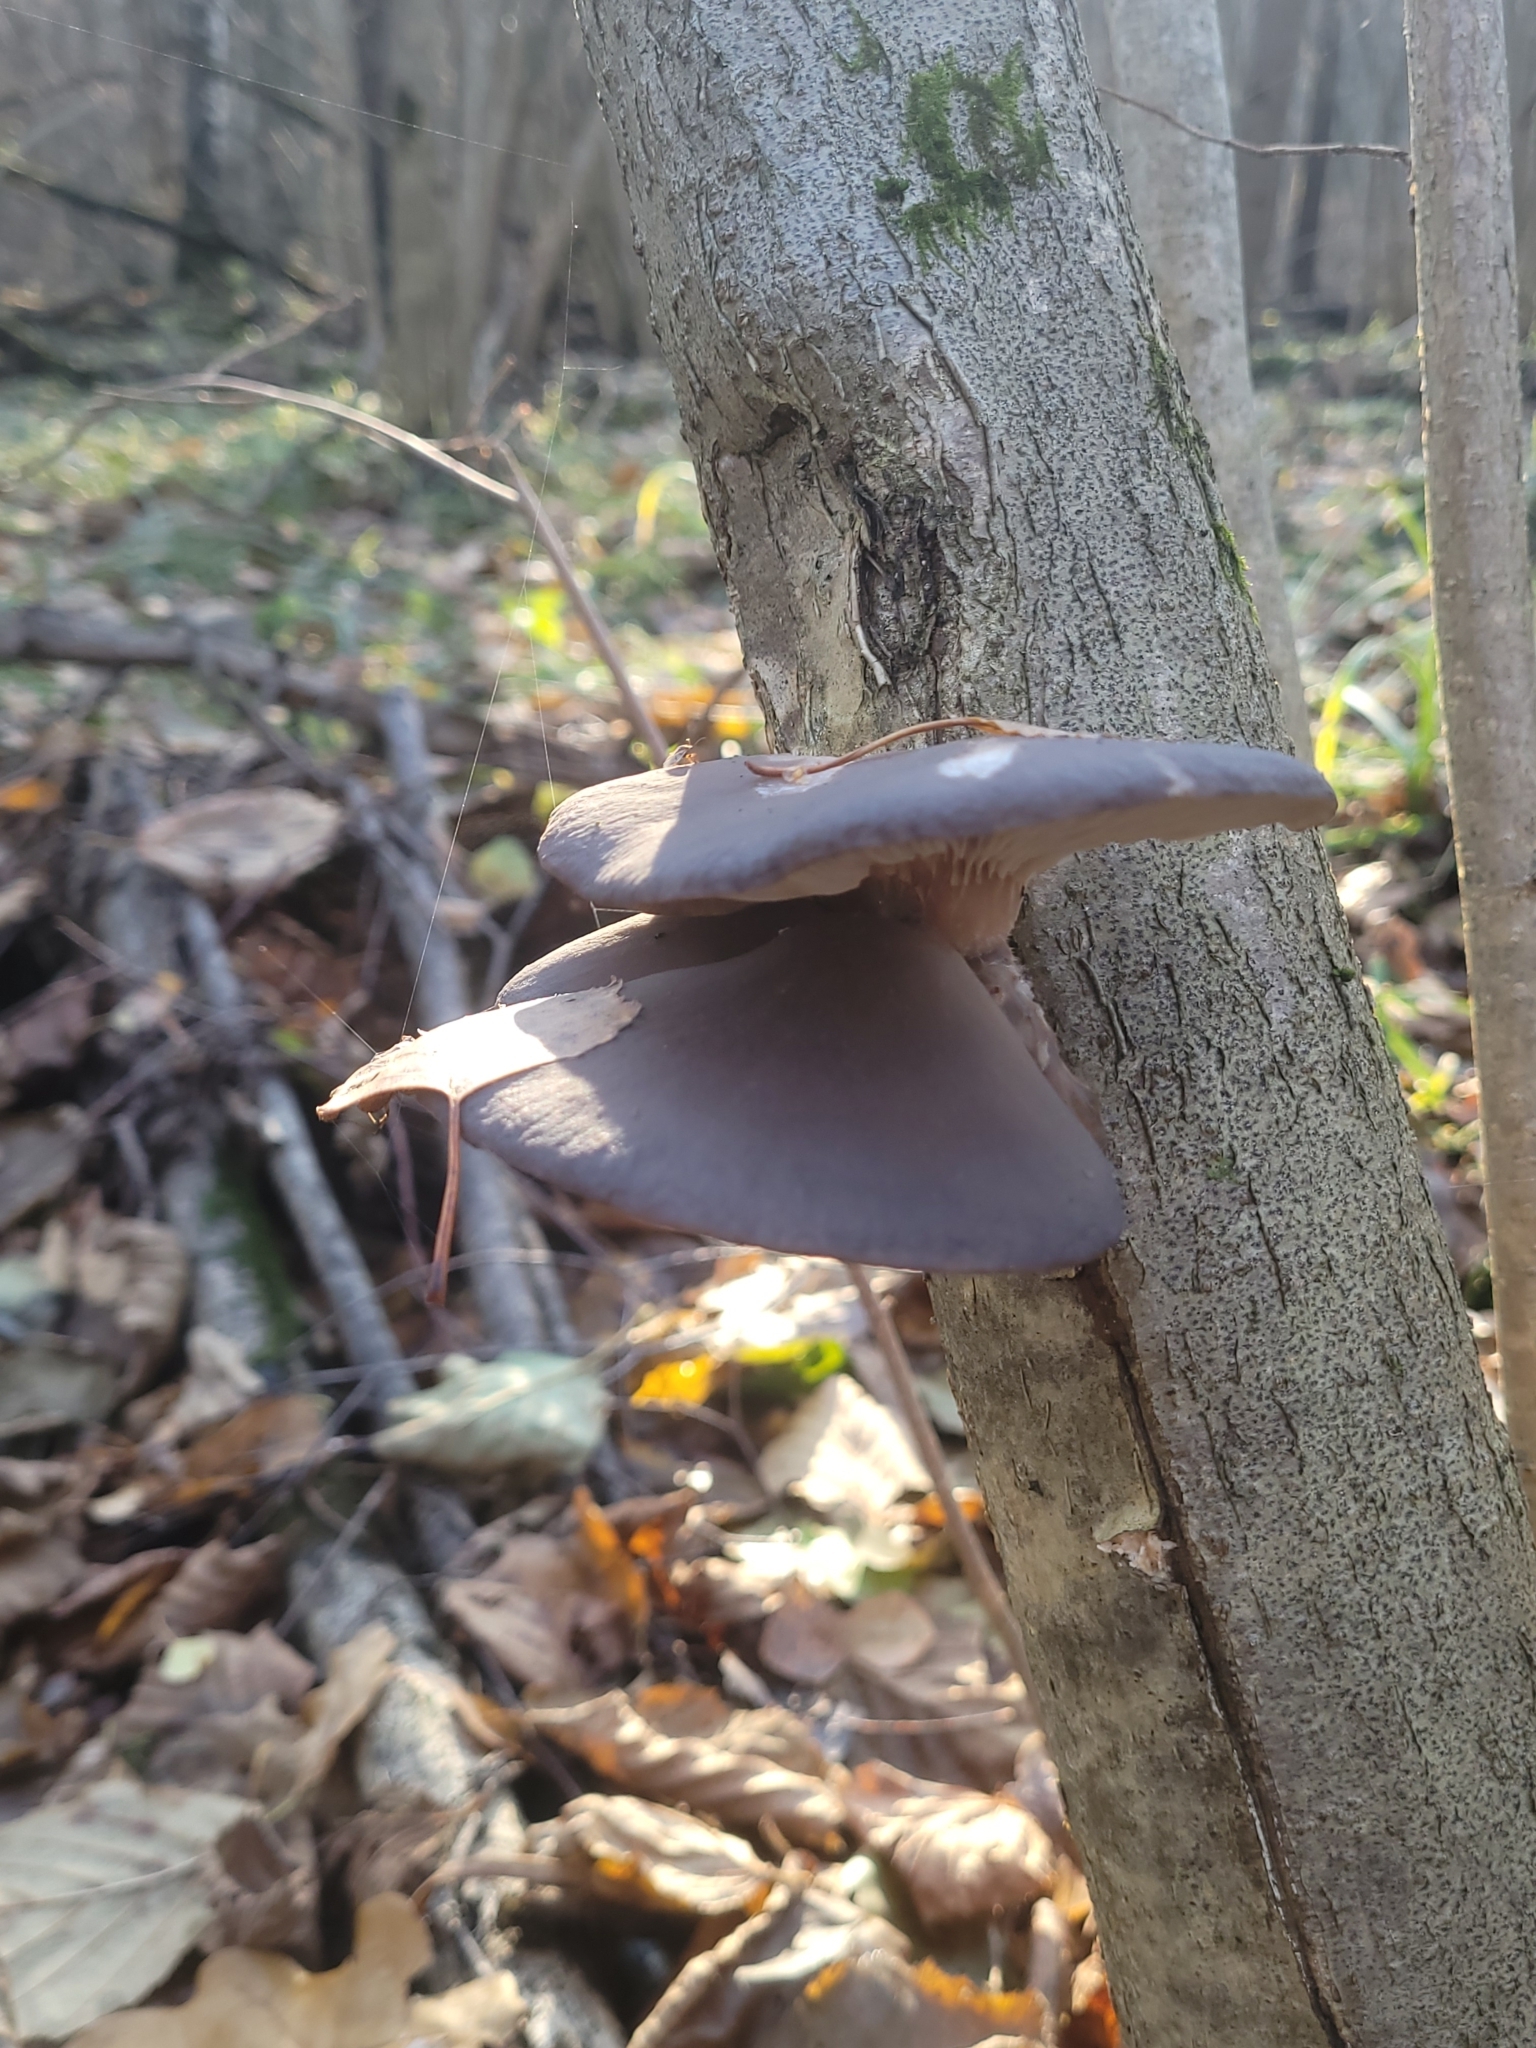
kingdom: Fungi
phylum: Basidiomycota
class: Agaricomycetes
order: Agaricales
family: Pleurotaceae
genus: Pleurotus
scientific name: Pleurotus ostreatus
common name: Oyster mushroom
